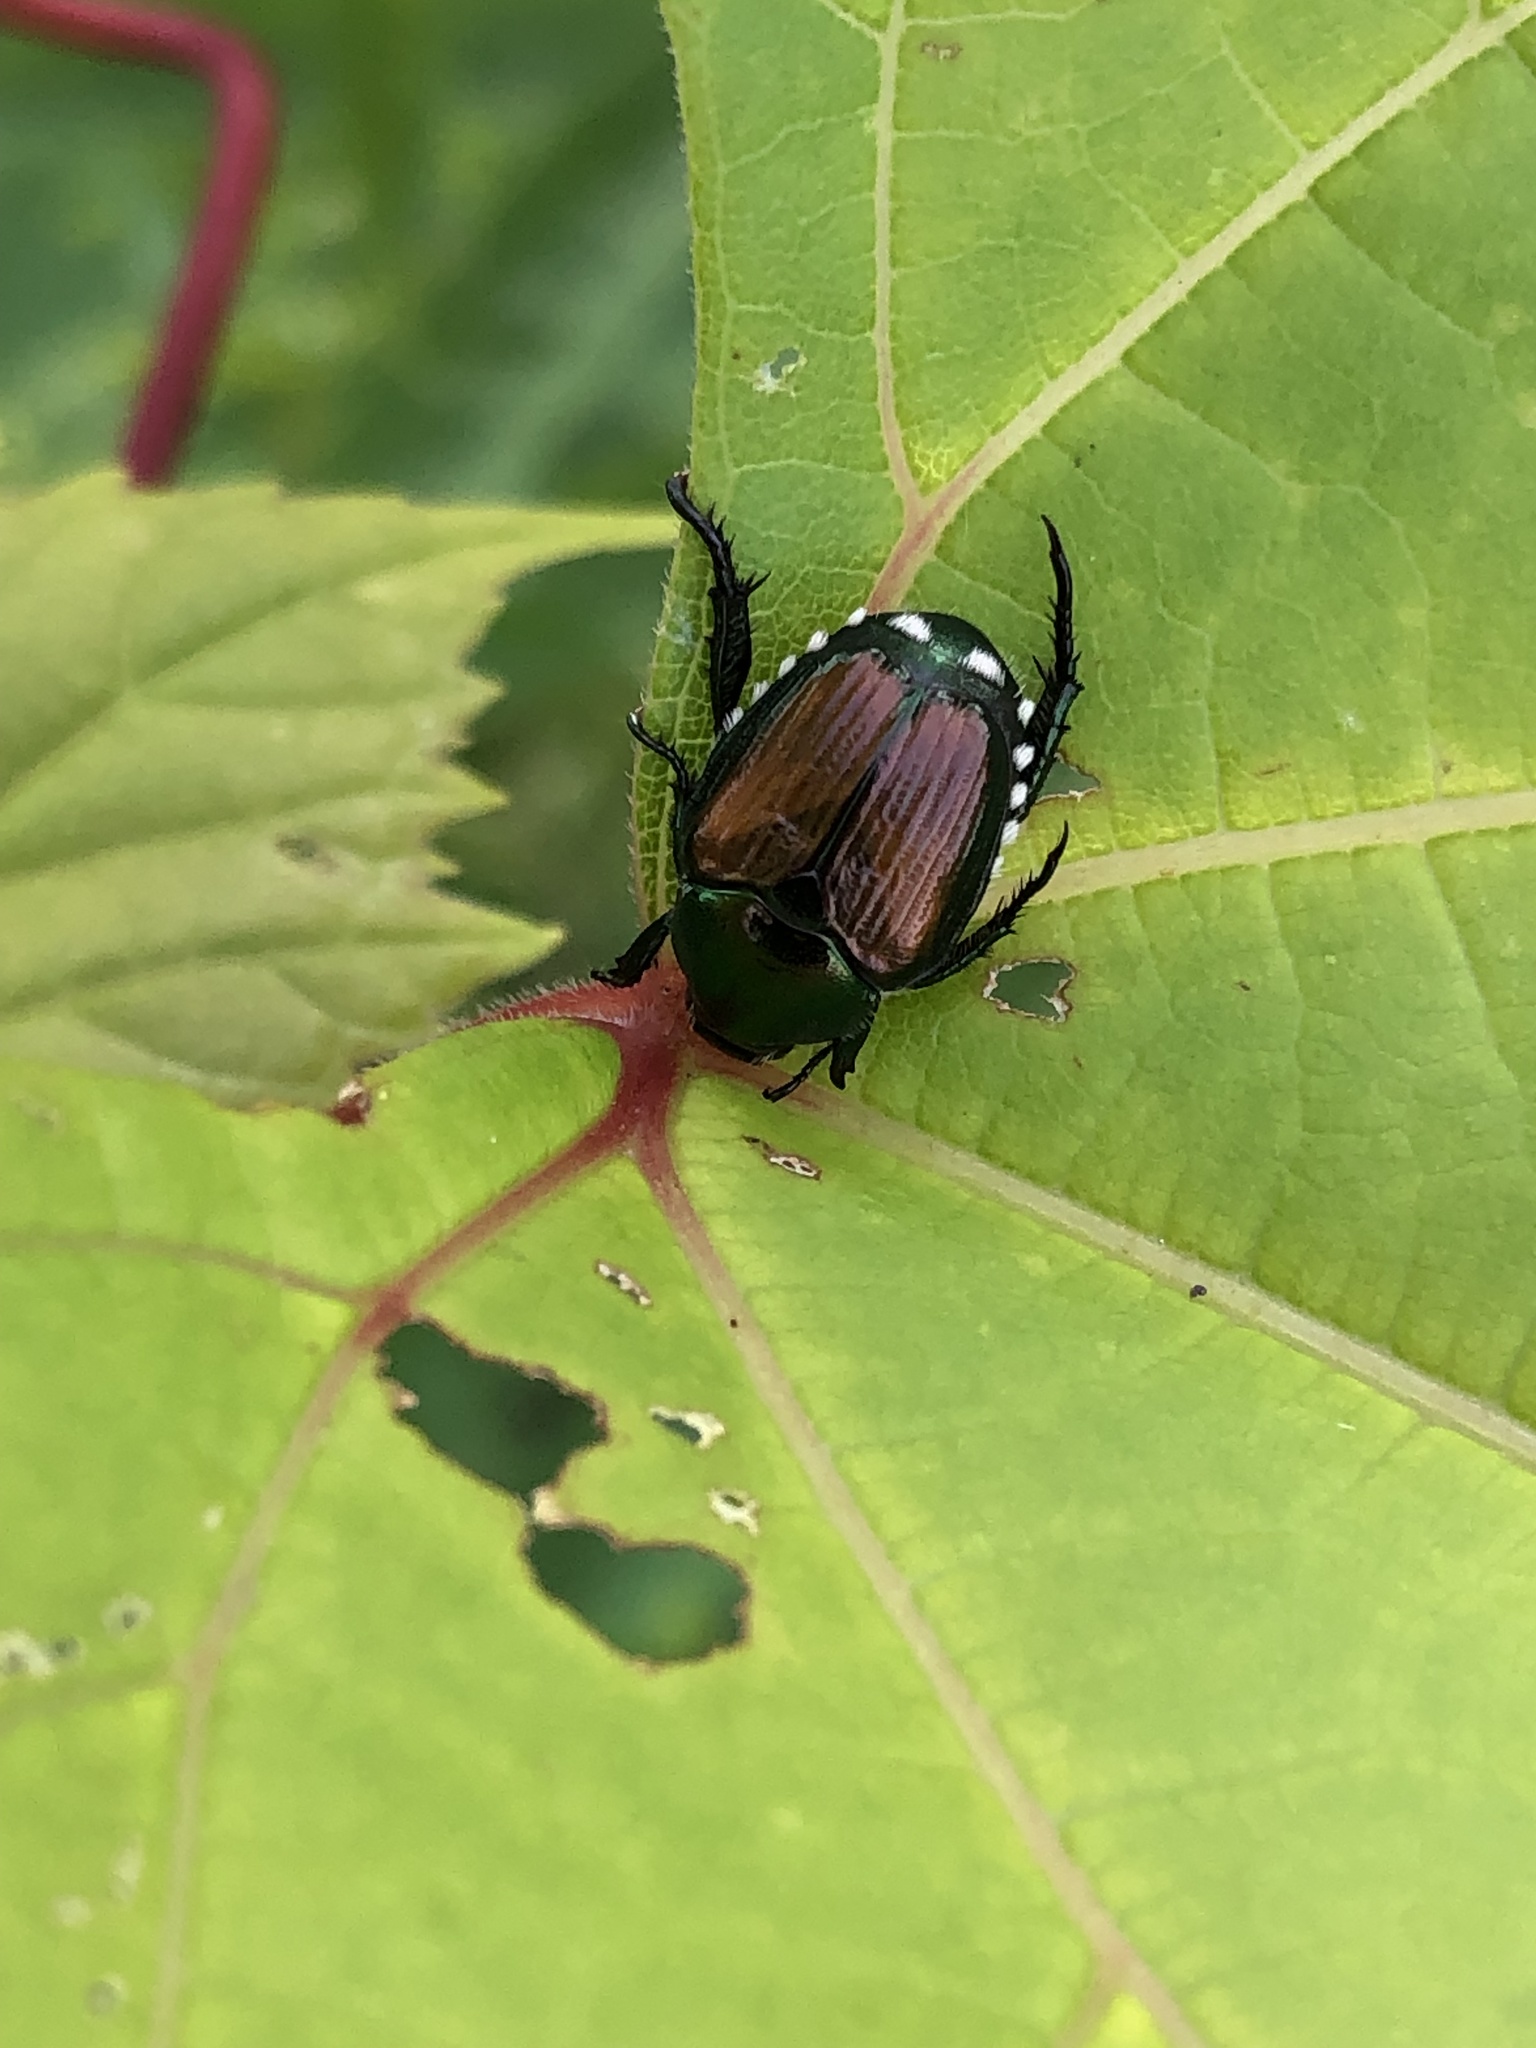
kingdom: Animalia
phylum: Arthropoda
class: Insecta
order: Coleoptera
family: Scarabaeidae
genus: Popillia
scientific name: Popillia japonica
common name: Japanese beetle
